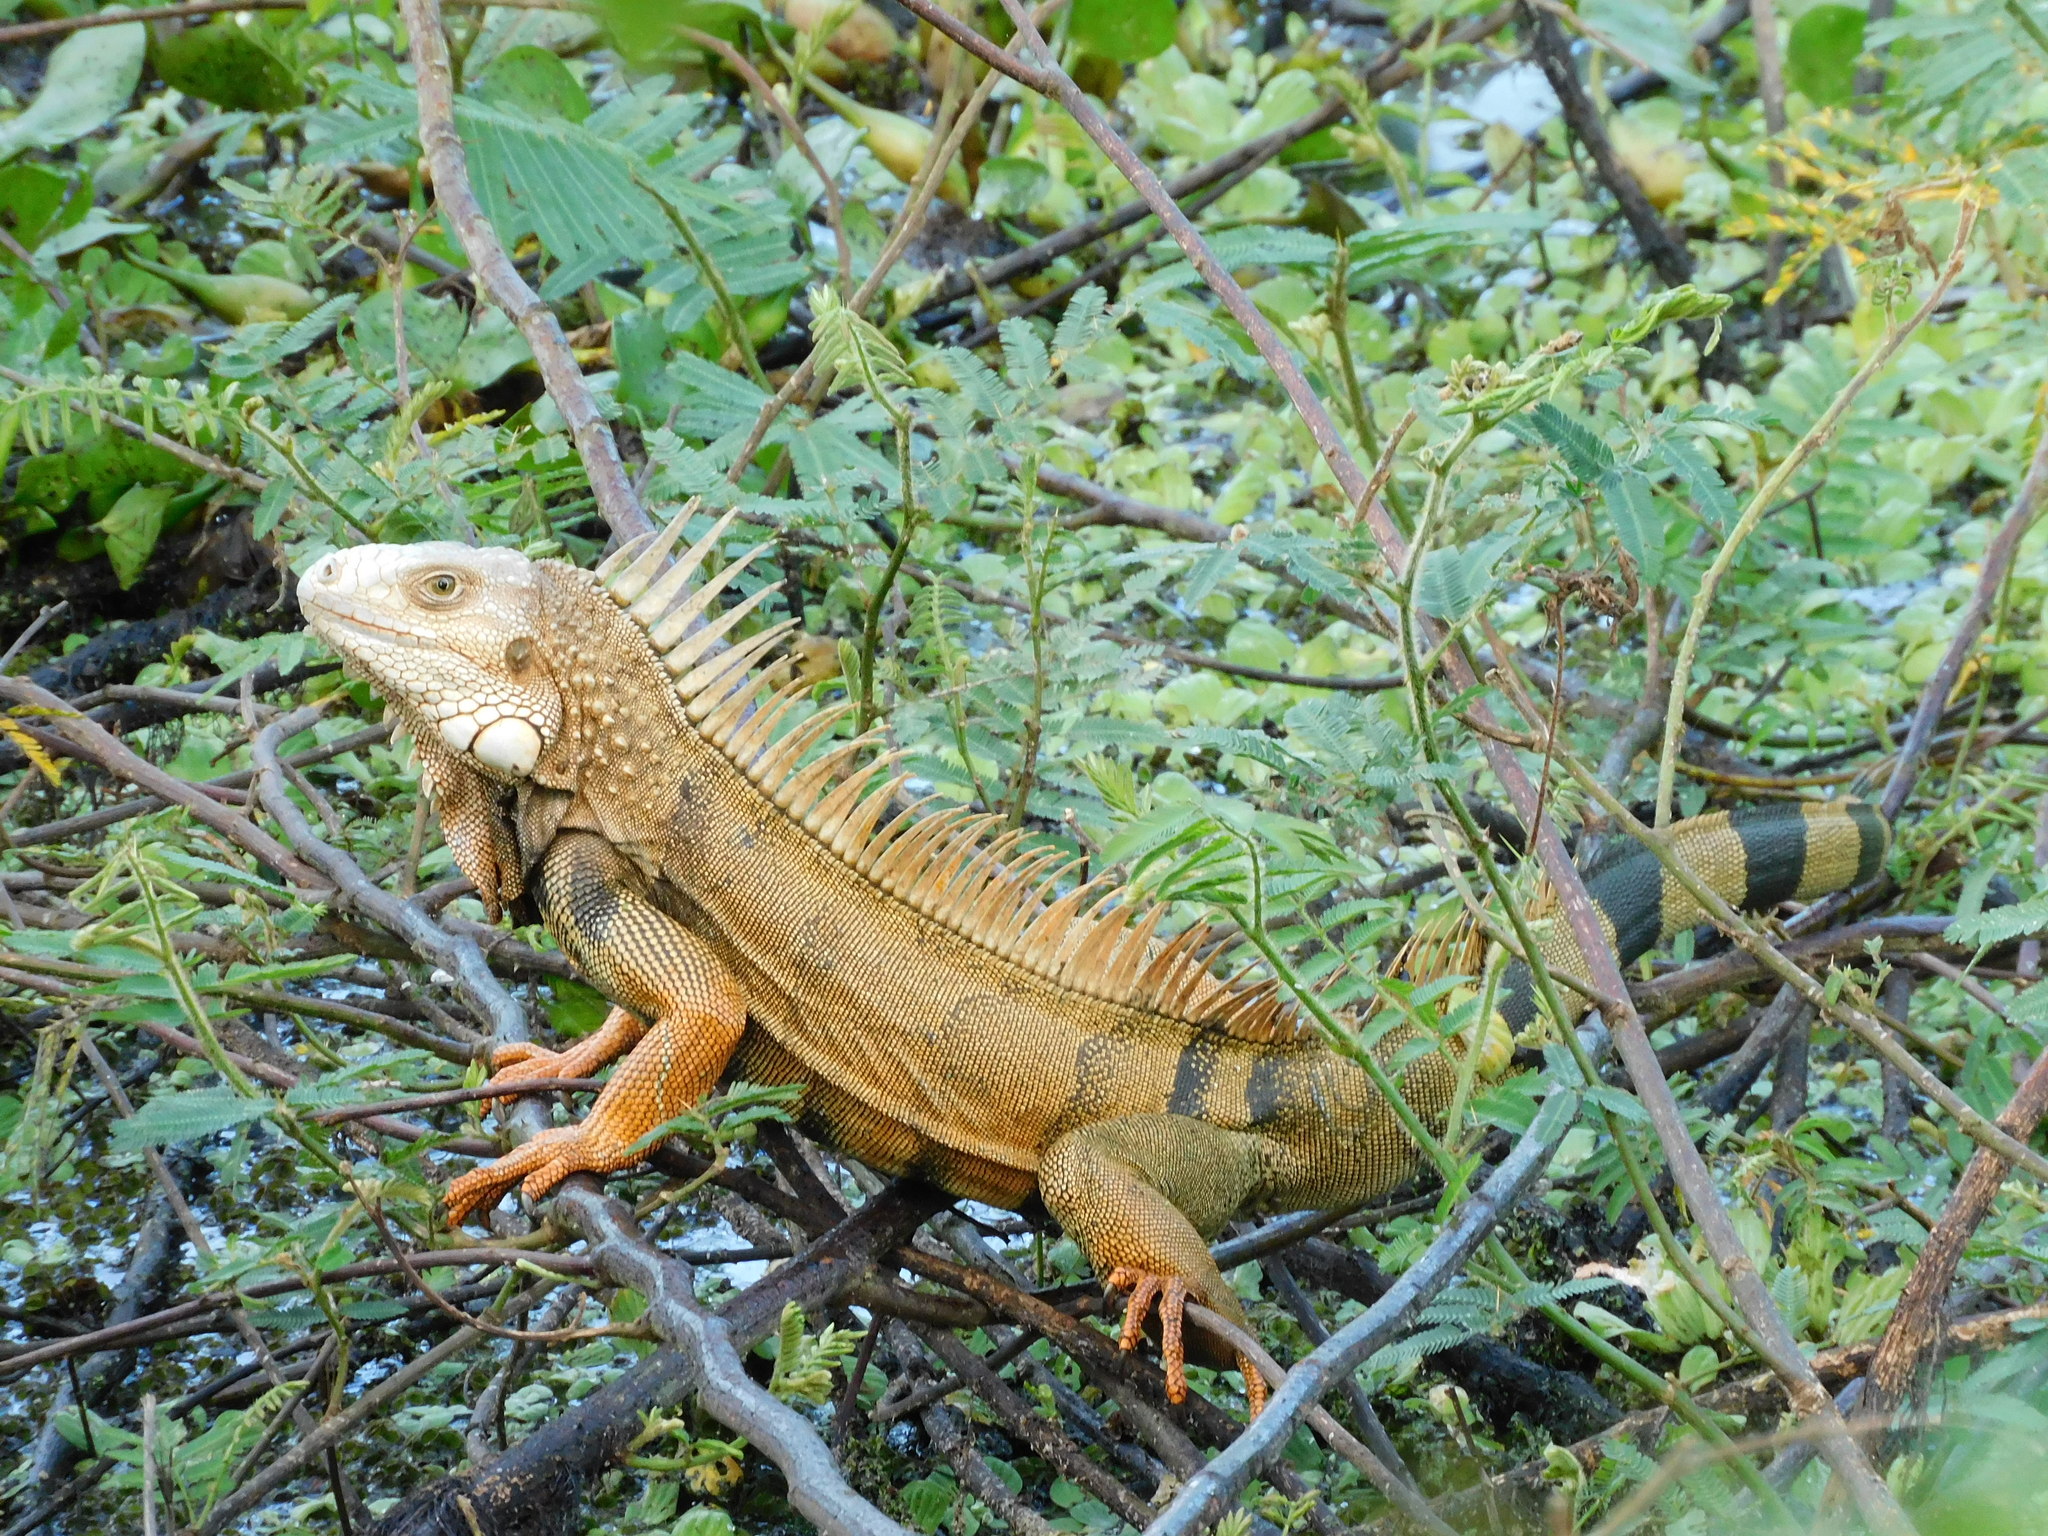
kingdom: Animalia
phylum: Chordata
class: Squamata
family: Iguanidae
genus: Iguana
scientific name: Iguana iguana
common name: Green iguana
